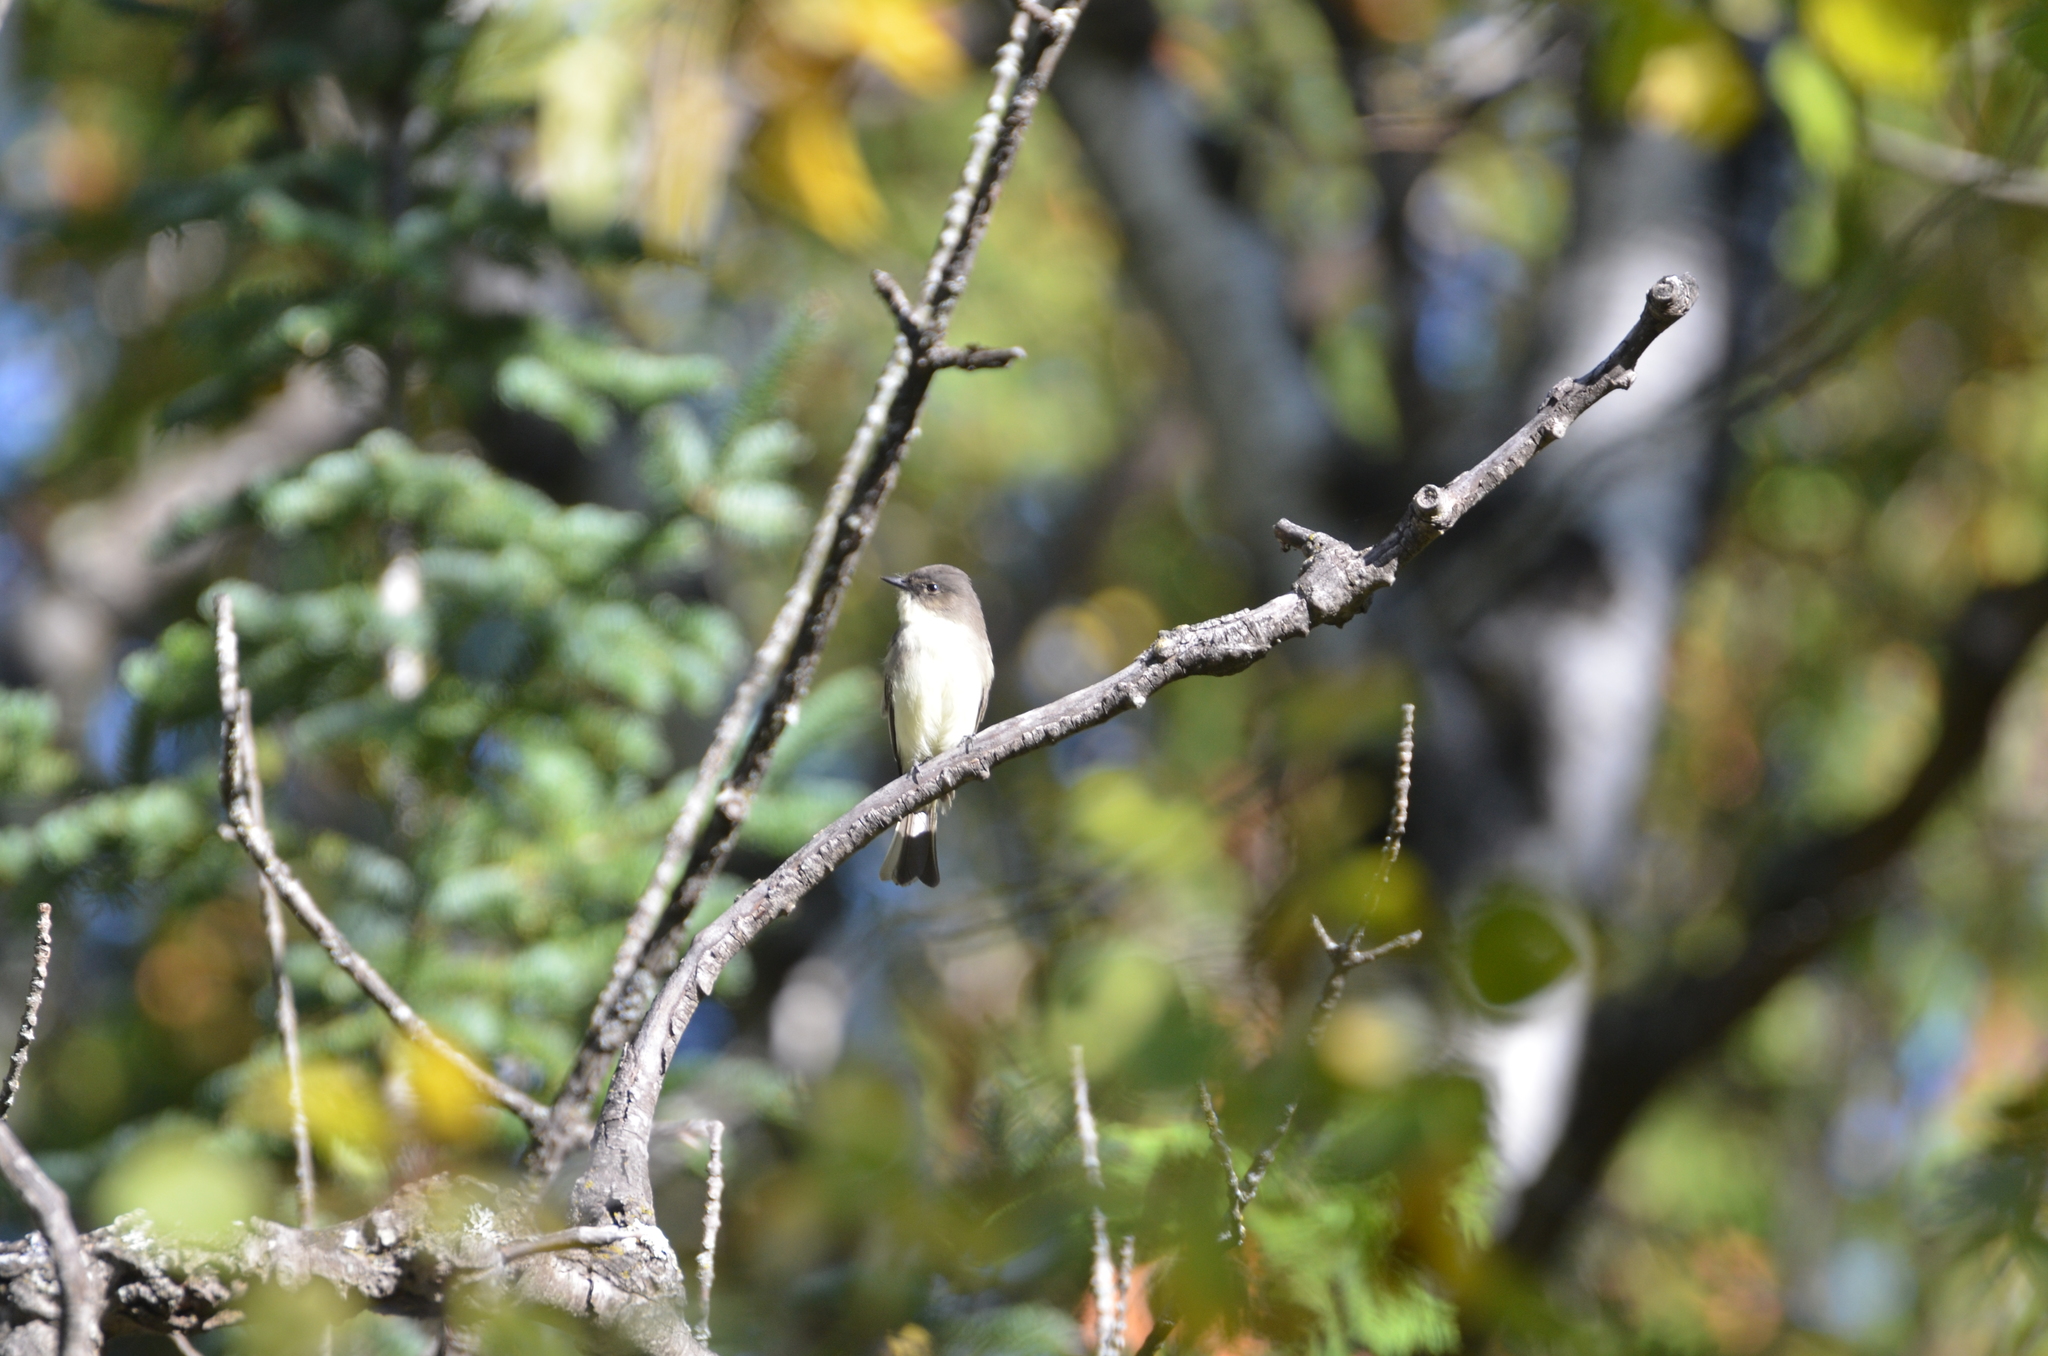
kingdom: Animalia
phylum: Chordata
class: Aves
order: Passeriformes
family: Tyrannidae
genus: Sayornis
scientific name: Sayornis phoebe
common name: Eastern phoebe
